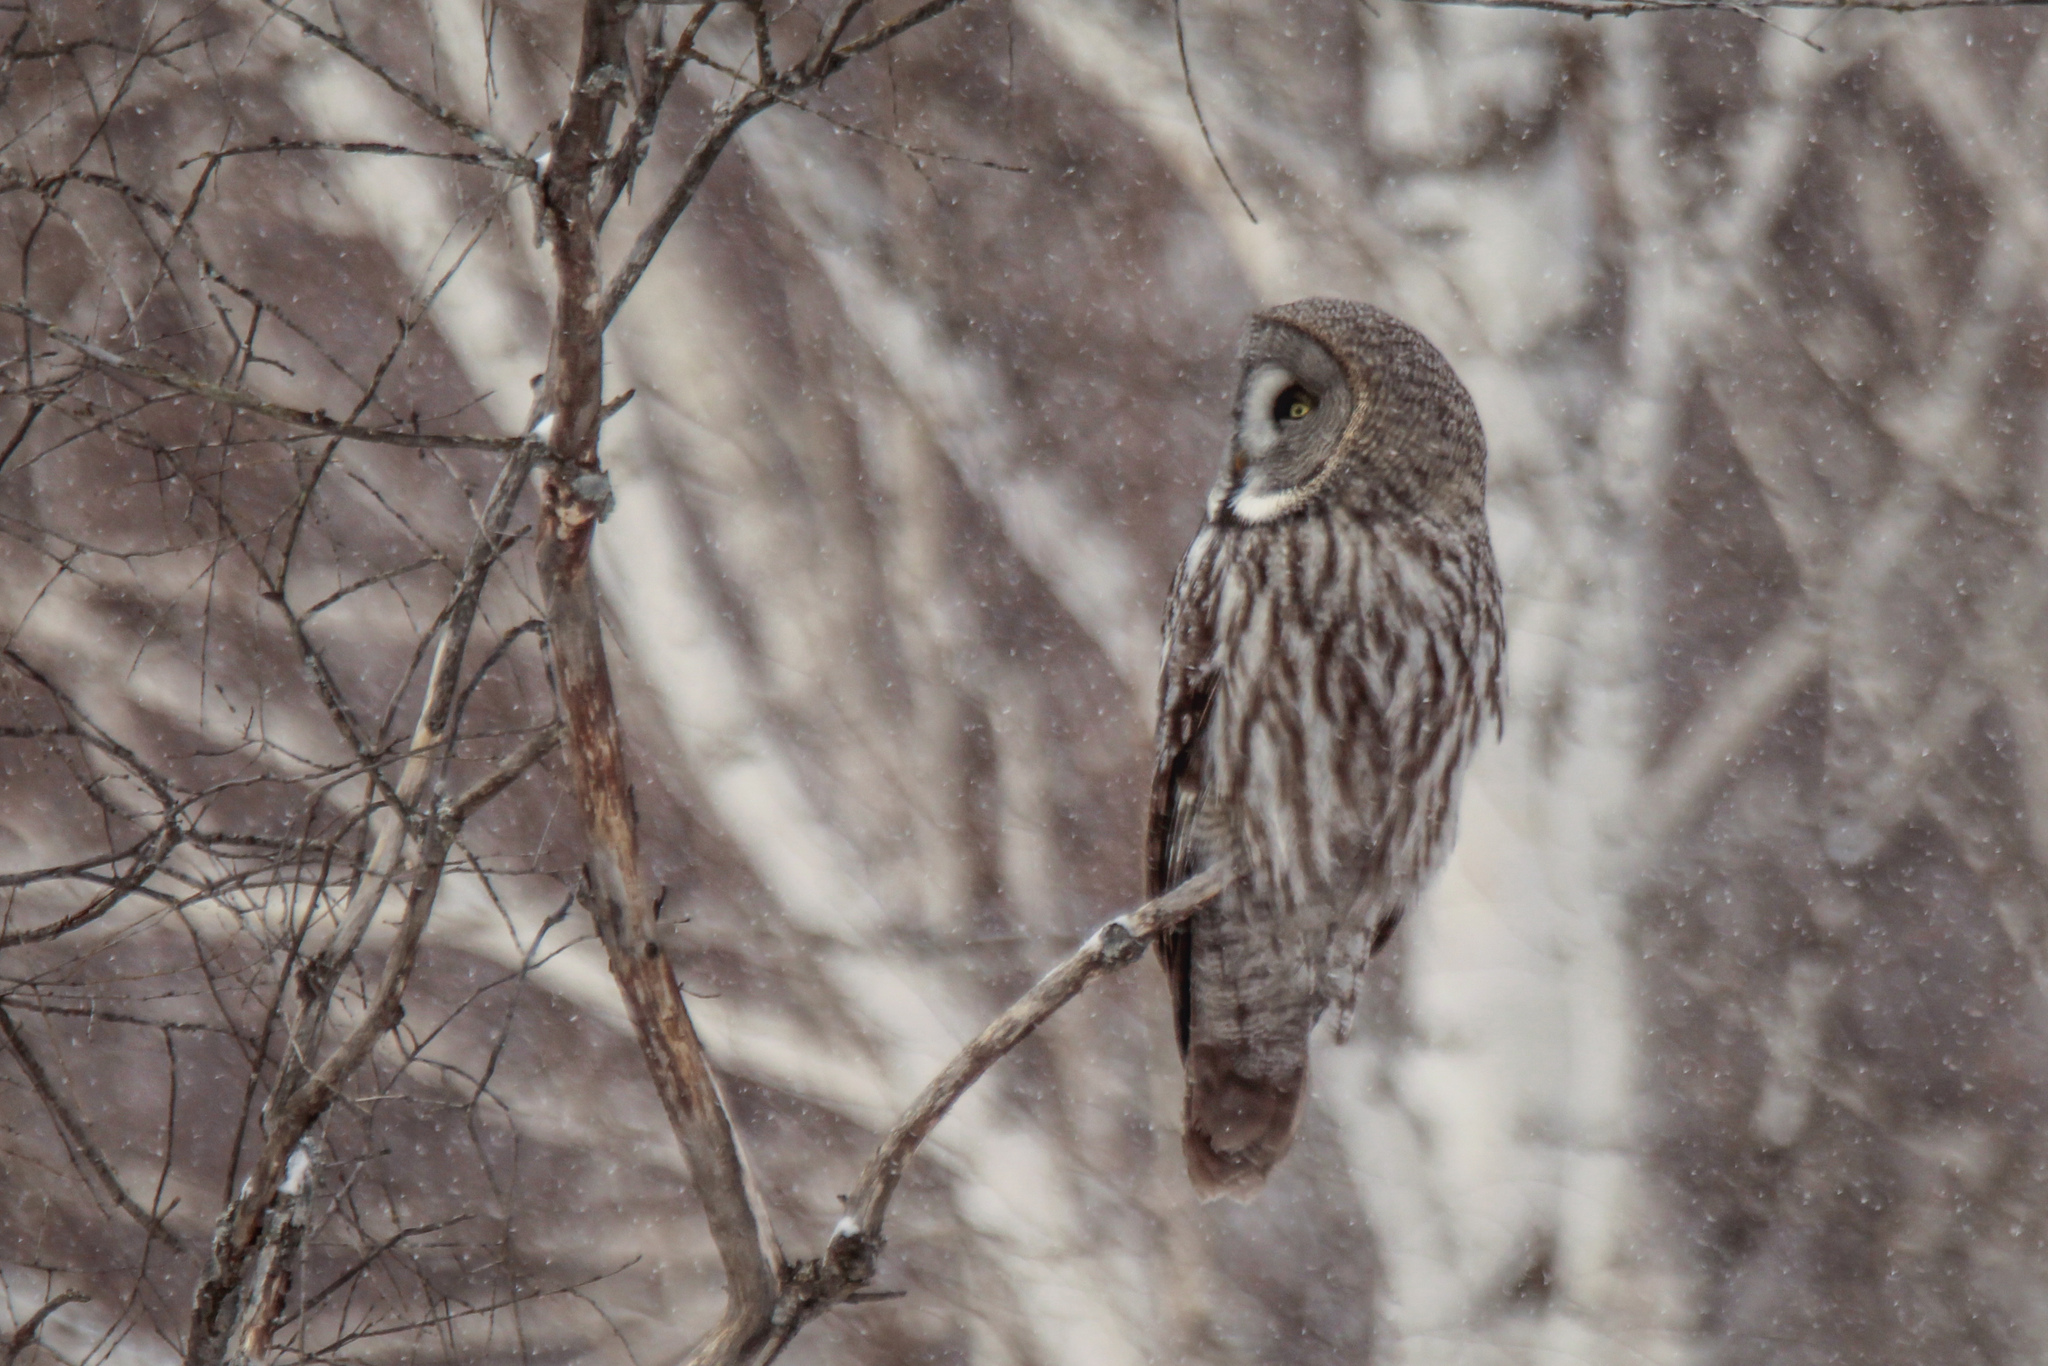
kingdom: Animalia
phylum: Chordata
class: Aves
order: Strigiformes
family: Strigidae
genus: Strix
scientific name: Strix nebulosa
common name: Great grey owl
